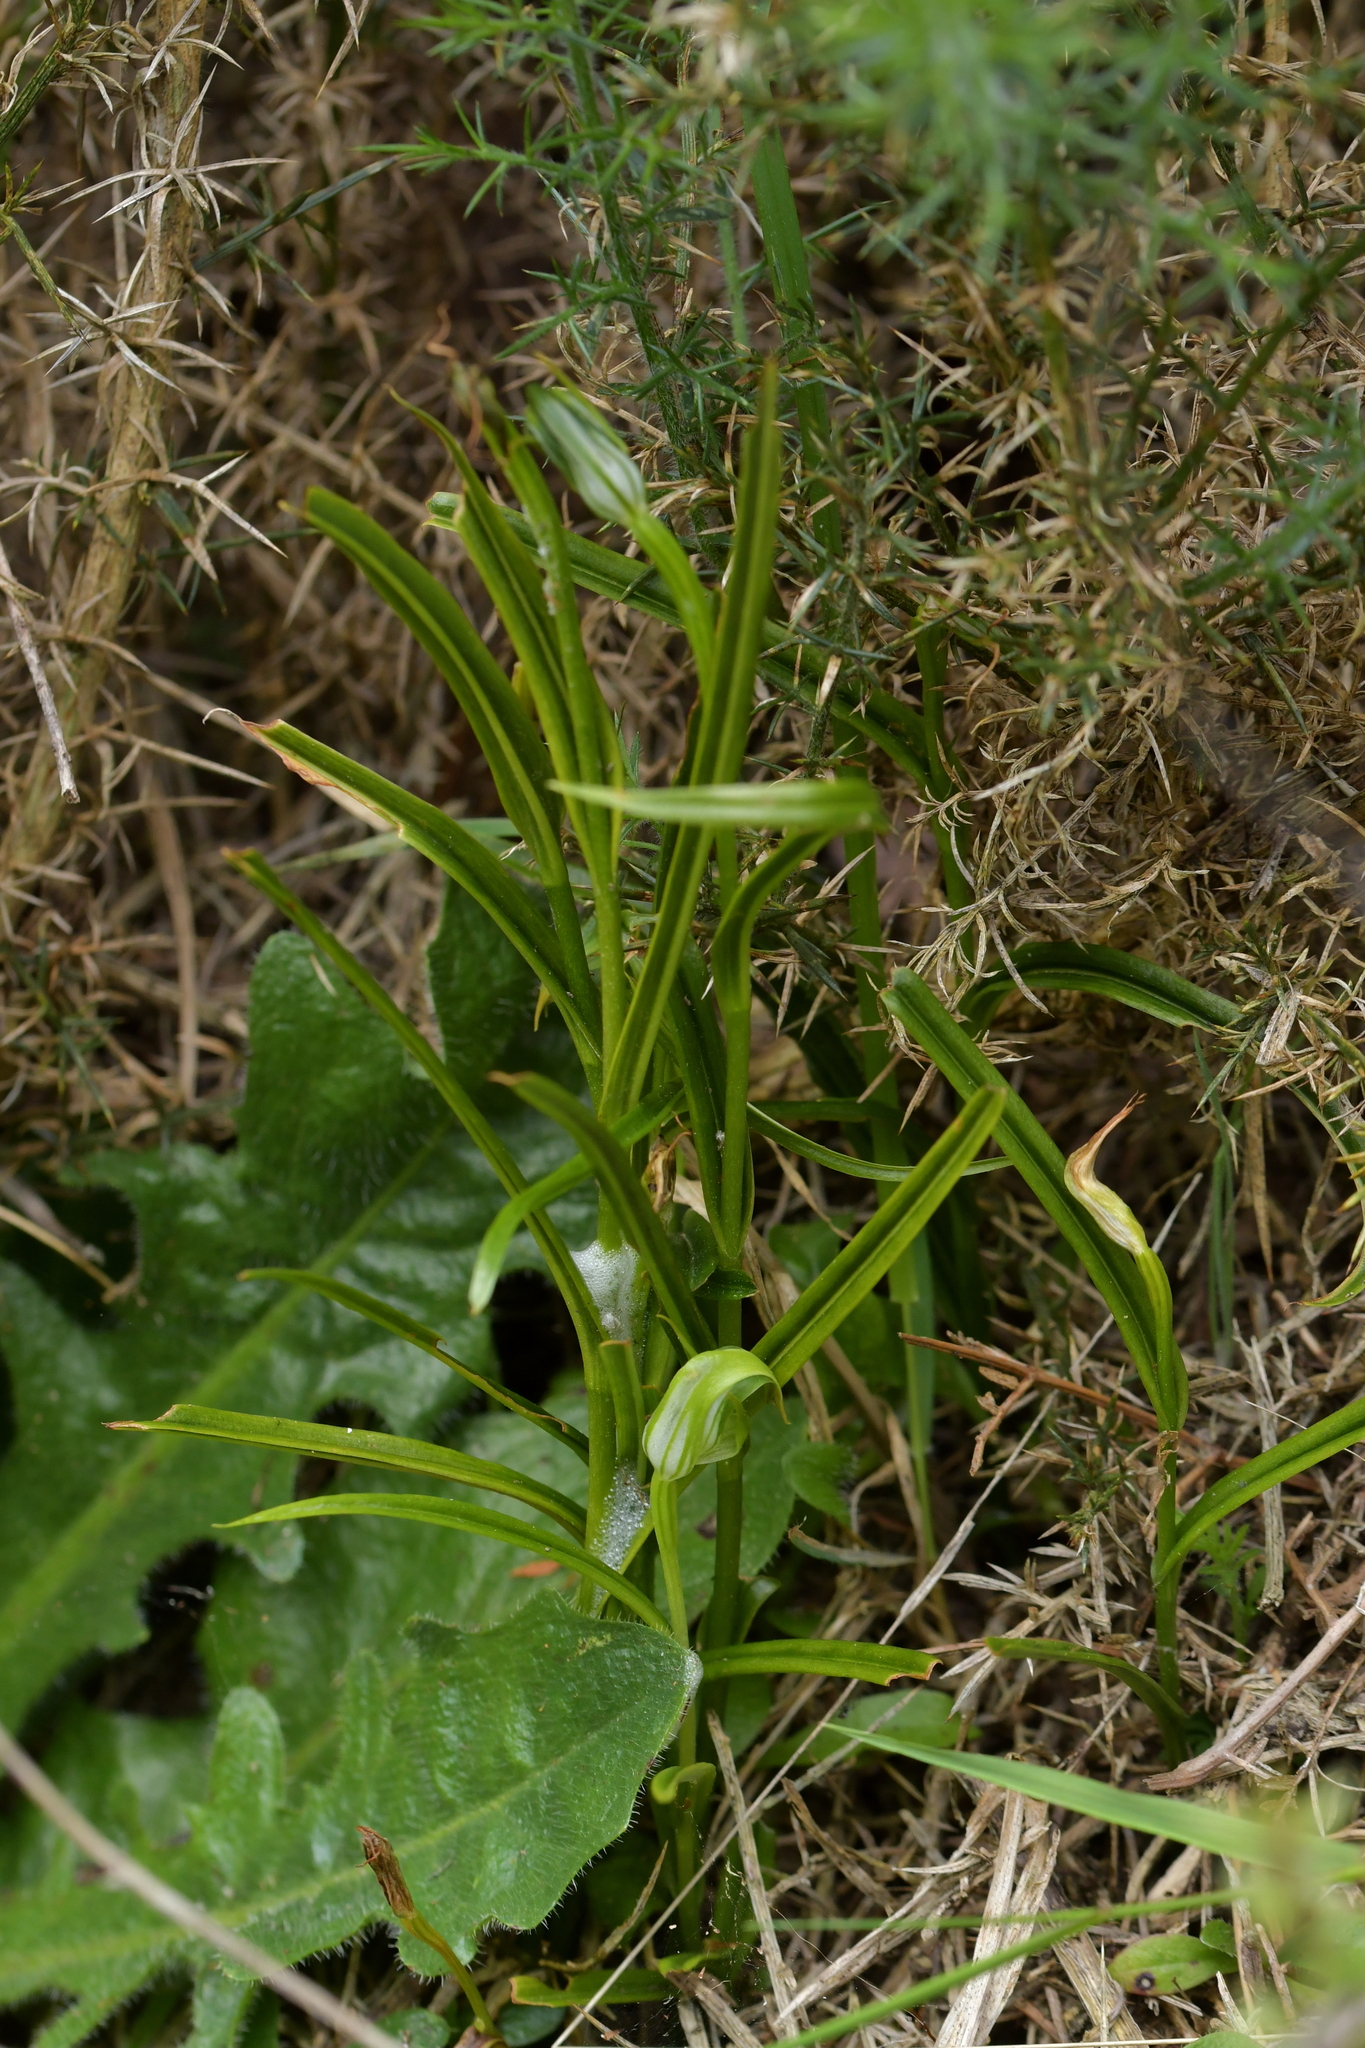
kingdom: Plantae
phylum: Tracheophyta
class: Liliopsida
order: Asparagales
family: Orchidaceae
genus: Pterostylis
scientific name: Pterostylis graminea
